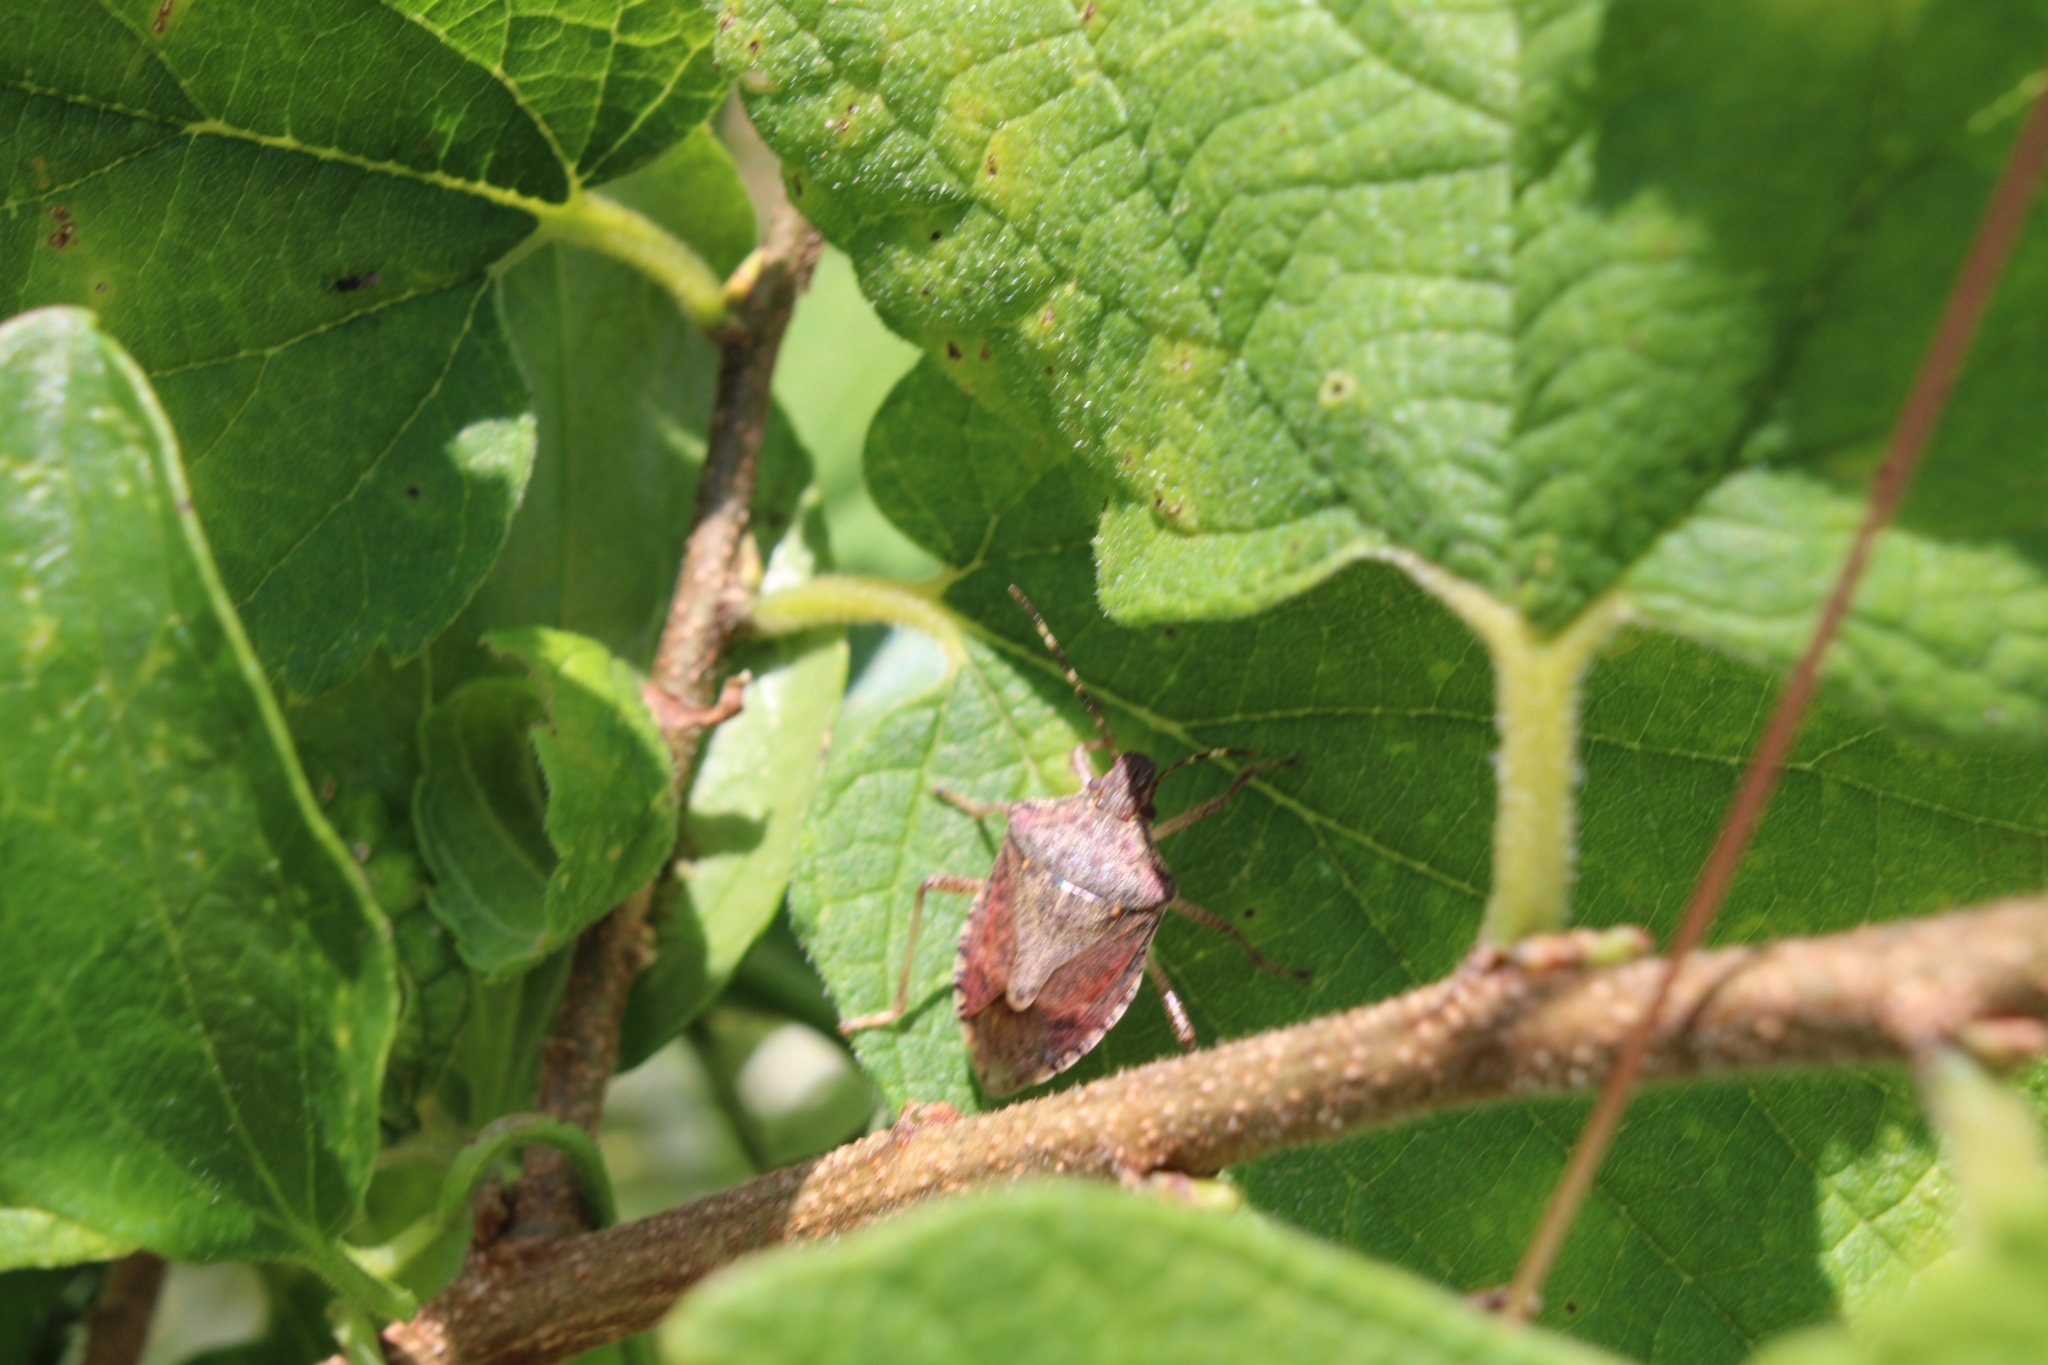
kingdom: Animalia
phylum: Arthropoda
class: Insecta
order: Hemiptera
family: Pentatomidae
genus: Halyomorpha
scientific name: Halyomorpha halys
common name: Brown marmorated stink bug
